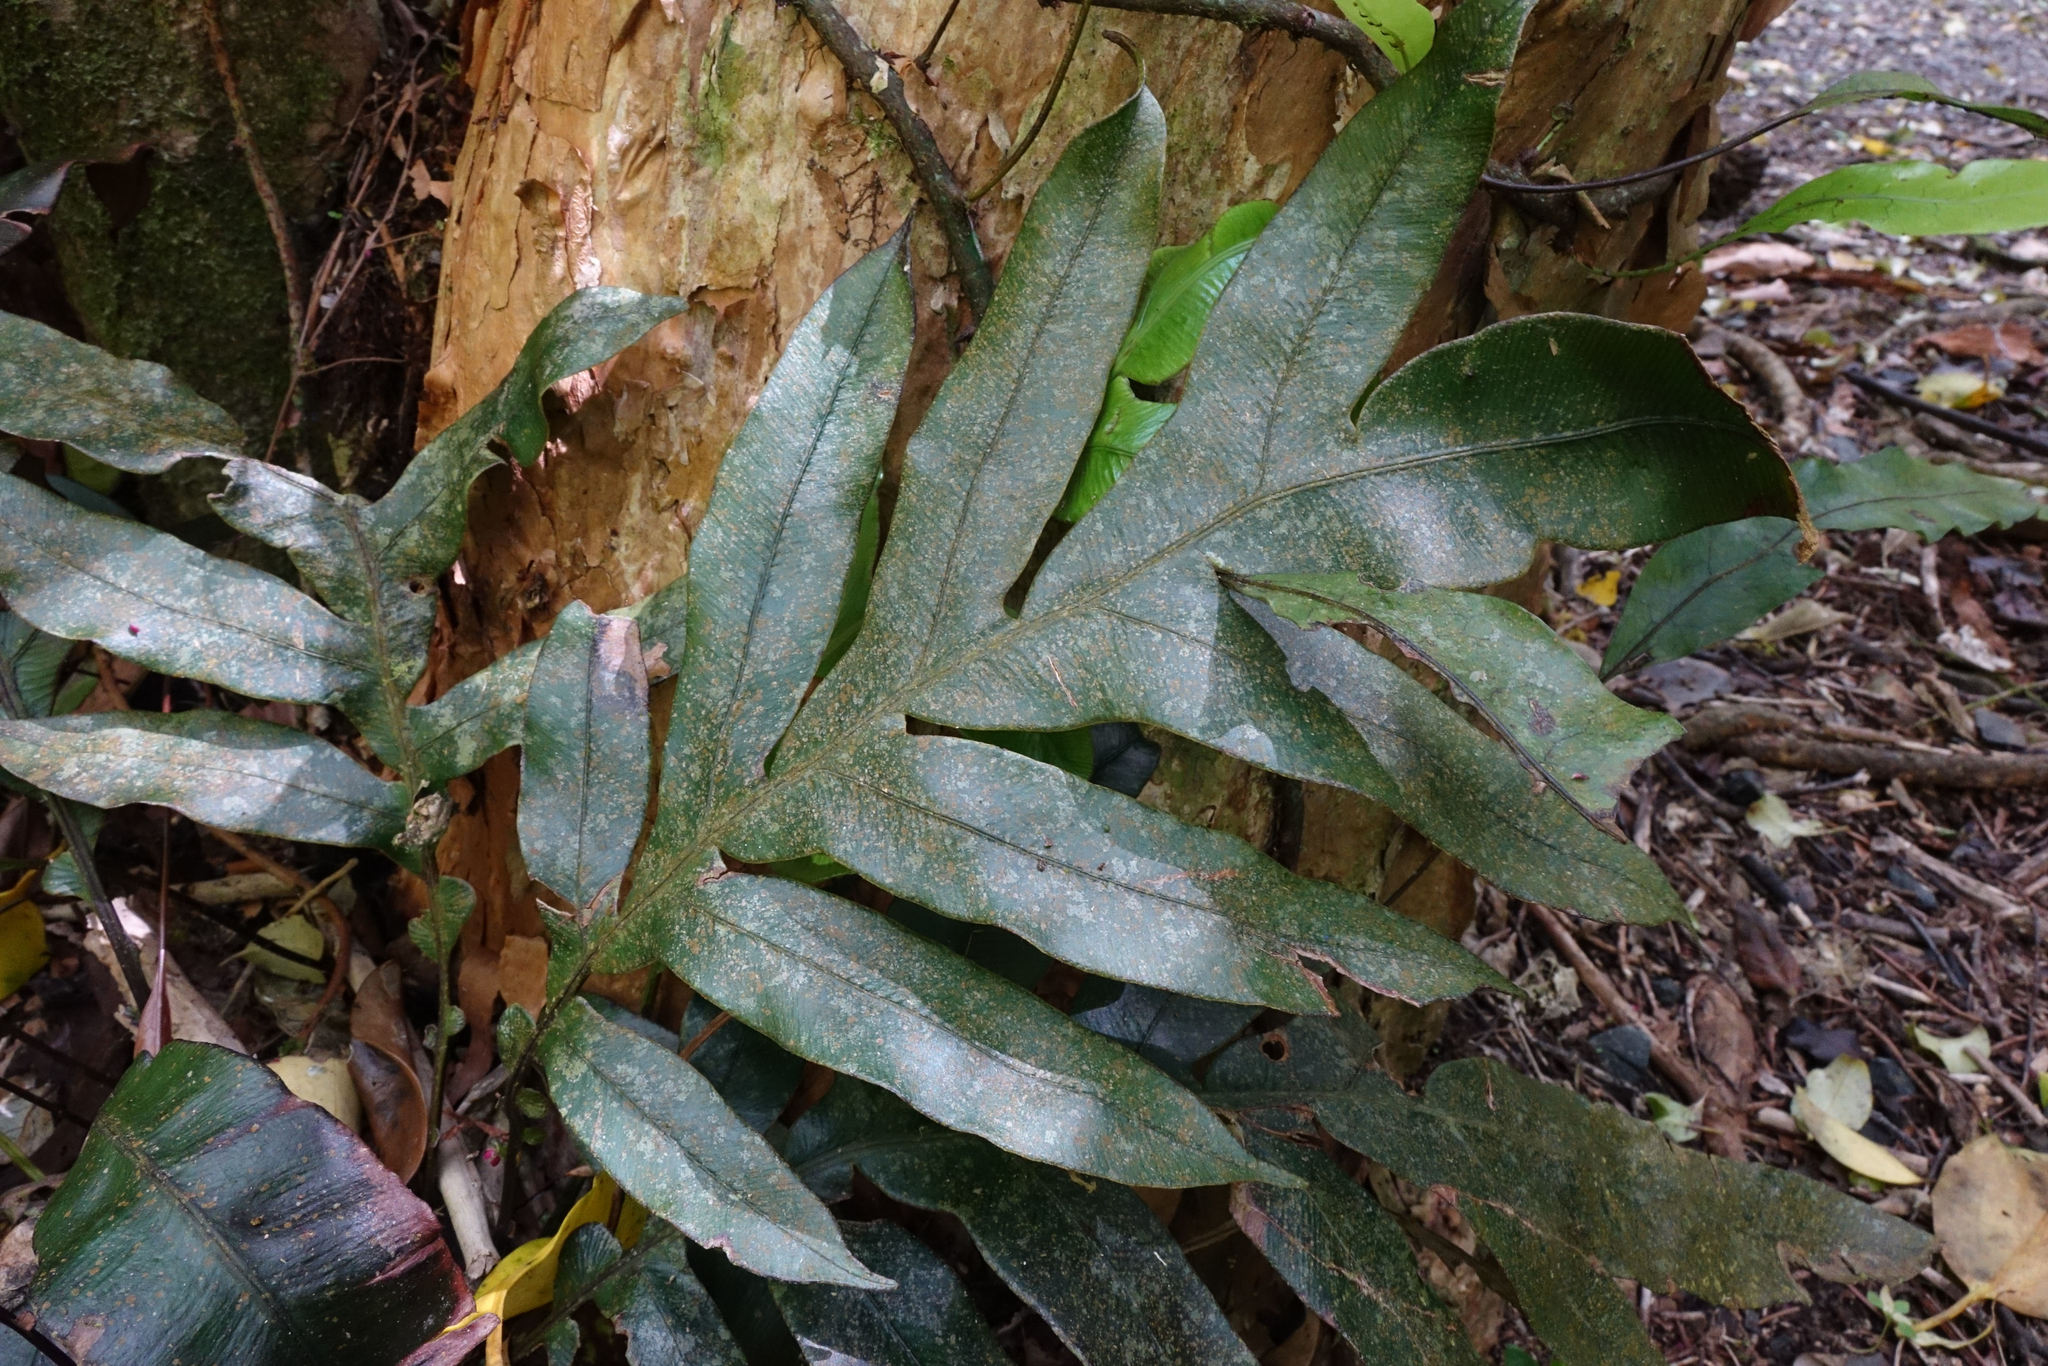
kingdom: Plantae
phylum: Tracheophyta
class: Polypodiopsida
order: Polypodiales
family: Blechnaceae
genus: Austroblechnum
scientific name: Austroblechnum colensoi
